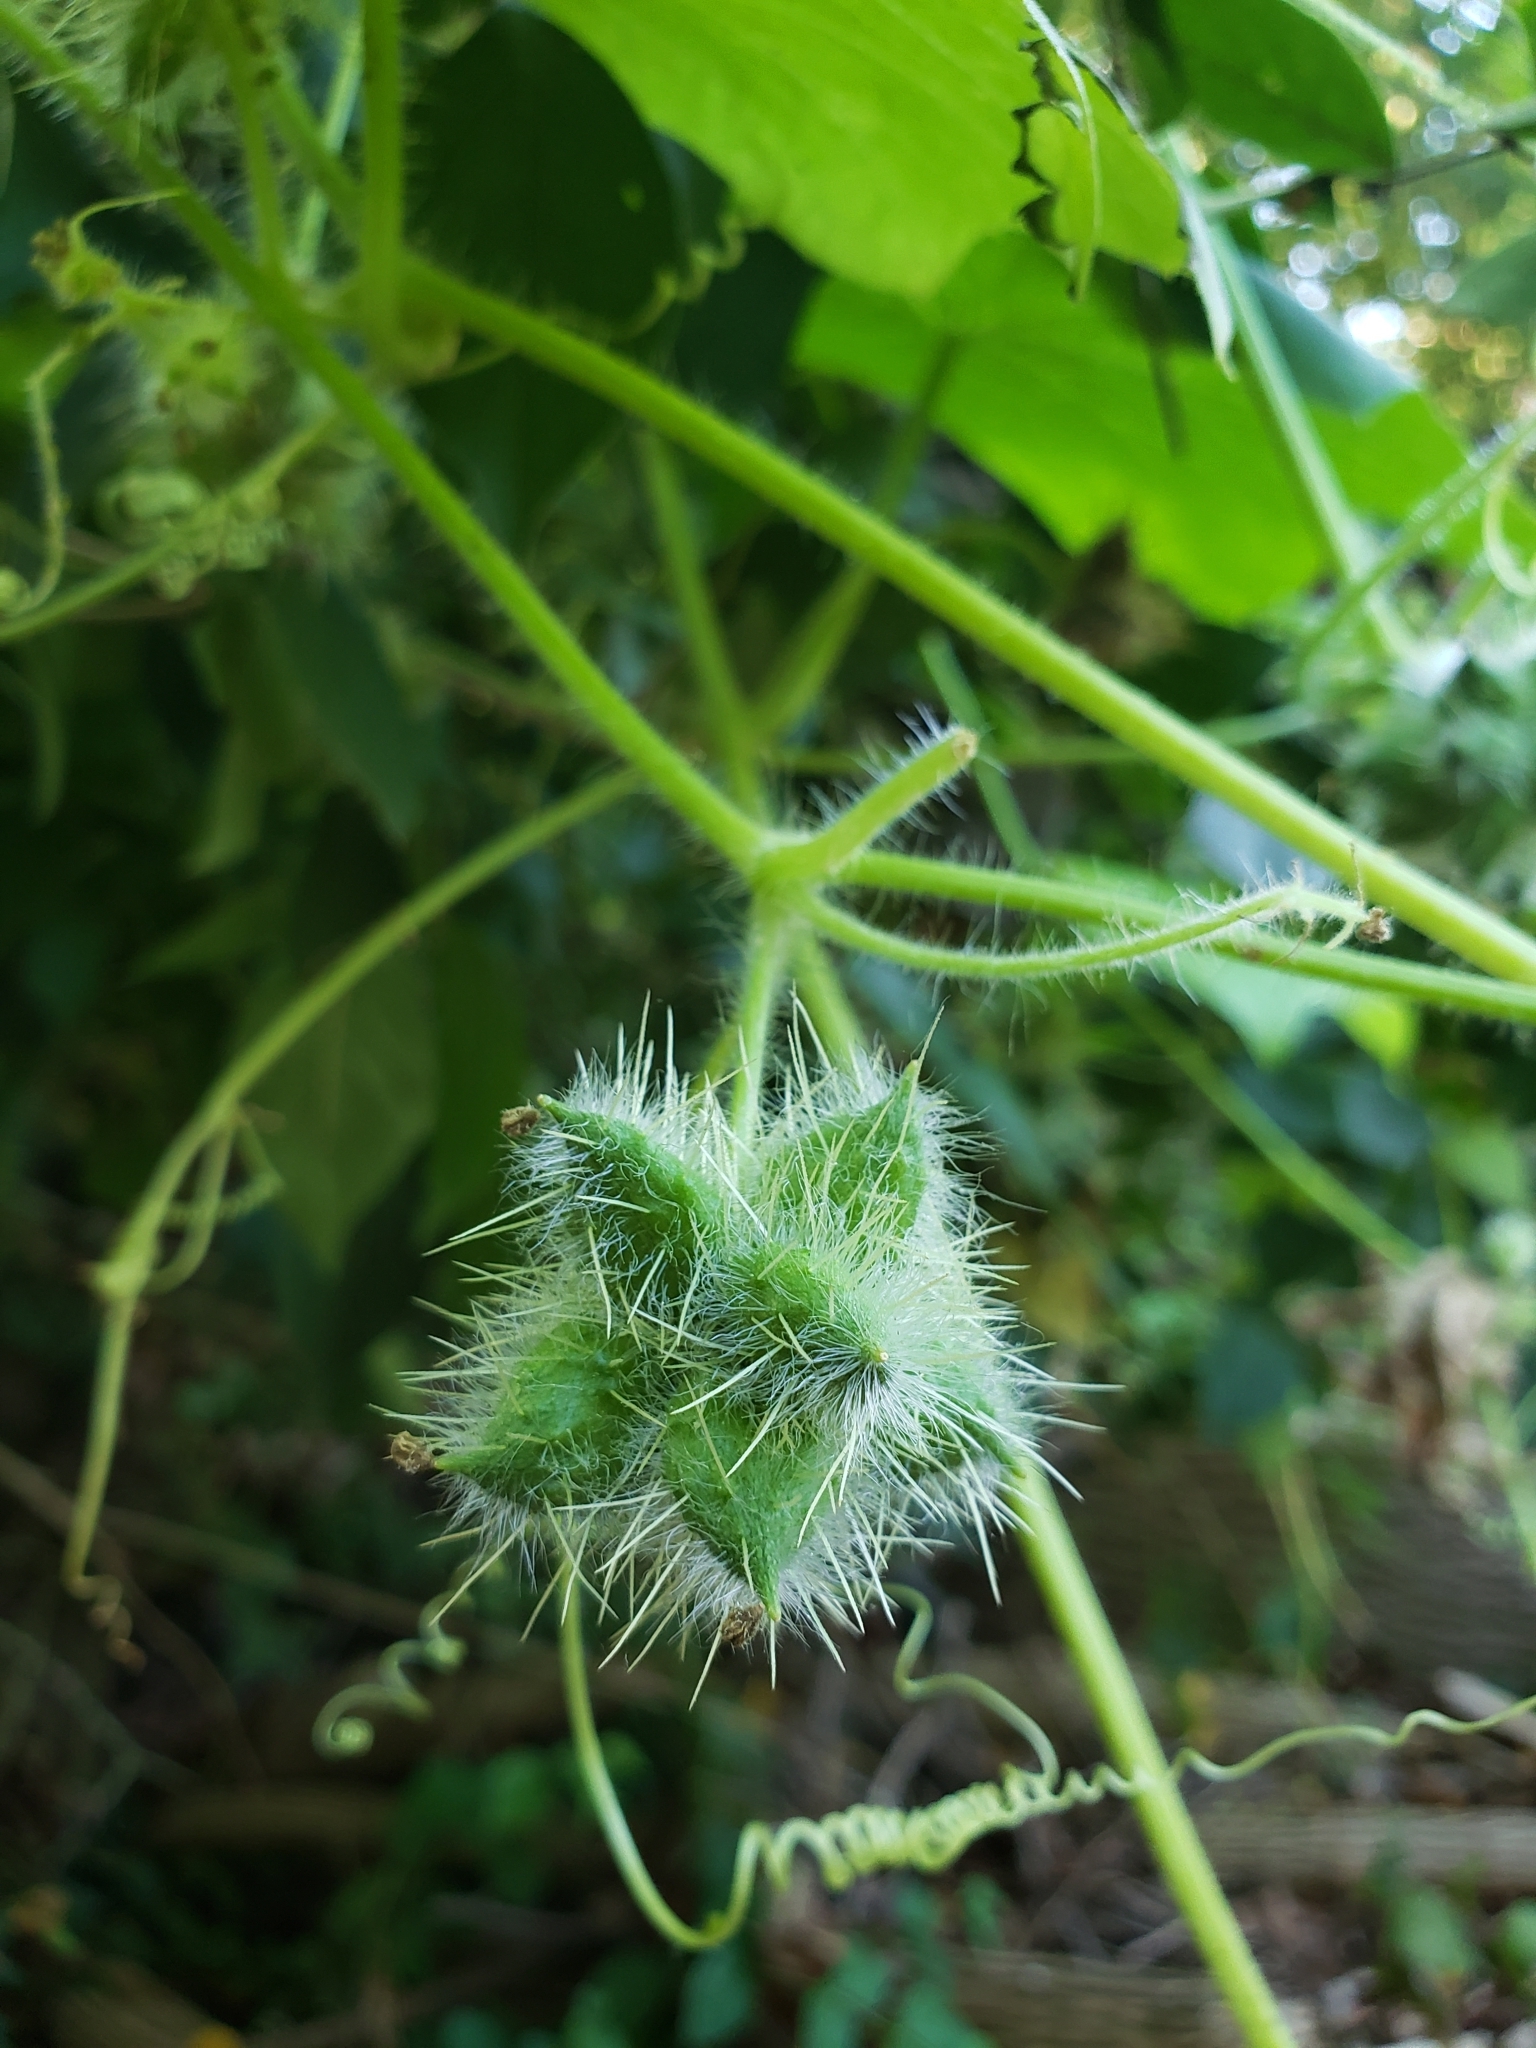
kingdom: Plantae
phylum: Tracheophyta
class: Magnoliopsida
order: Cucurbitales
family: Cucurbitaceae
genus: Sicyos
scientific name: Sicyos angulatus
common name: Angled burr cucumber
